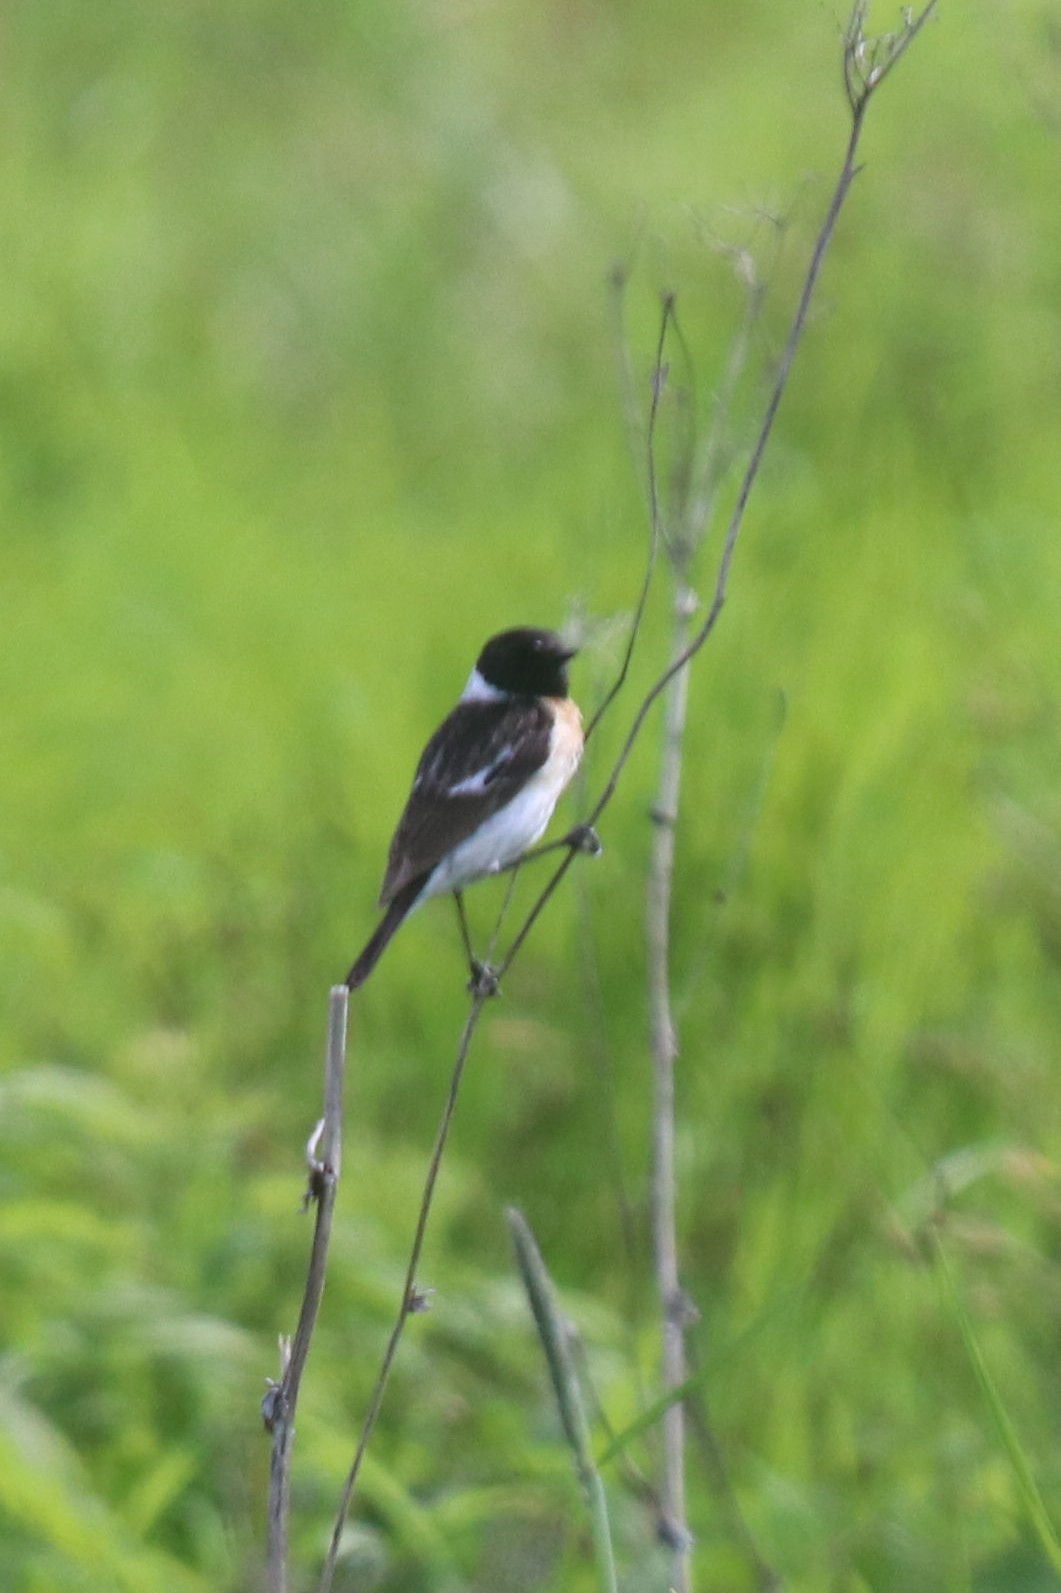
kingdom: Animalia
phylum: Chordata
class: Aves
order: Passeriformes
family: Muscicapidae
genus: Saxicola
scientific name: Saxicola maurus
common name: Siberian stonechat
